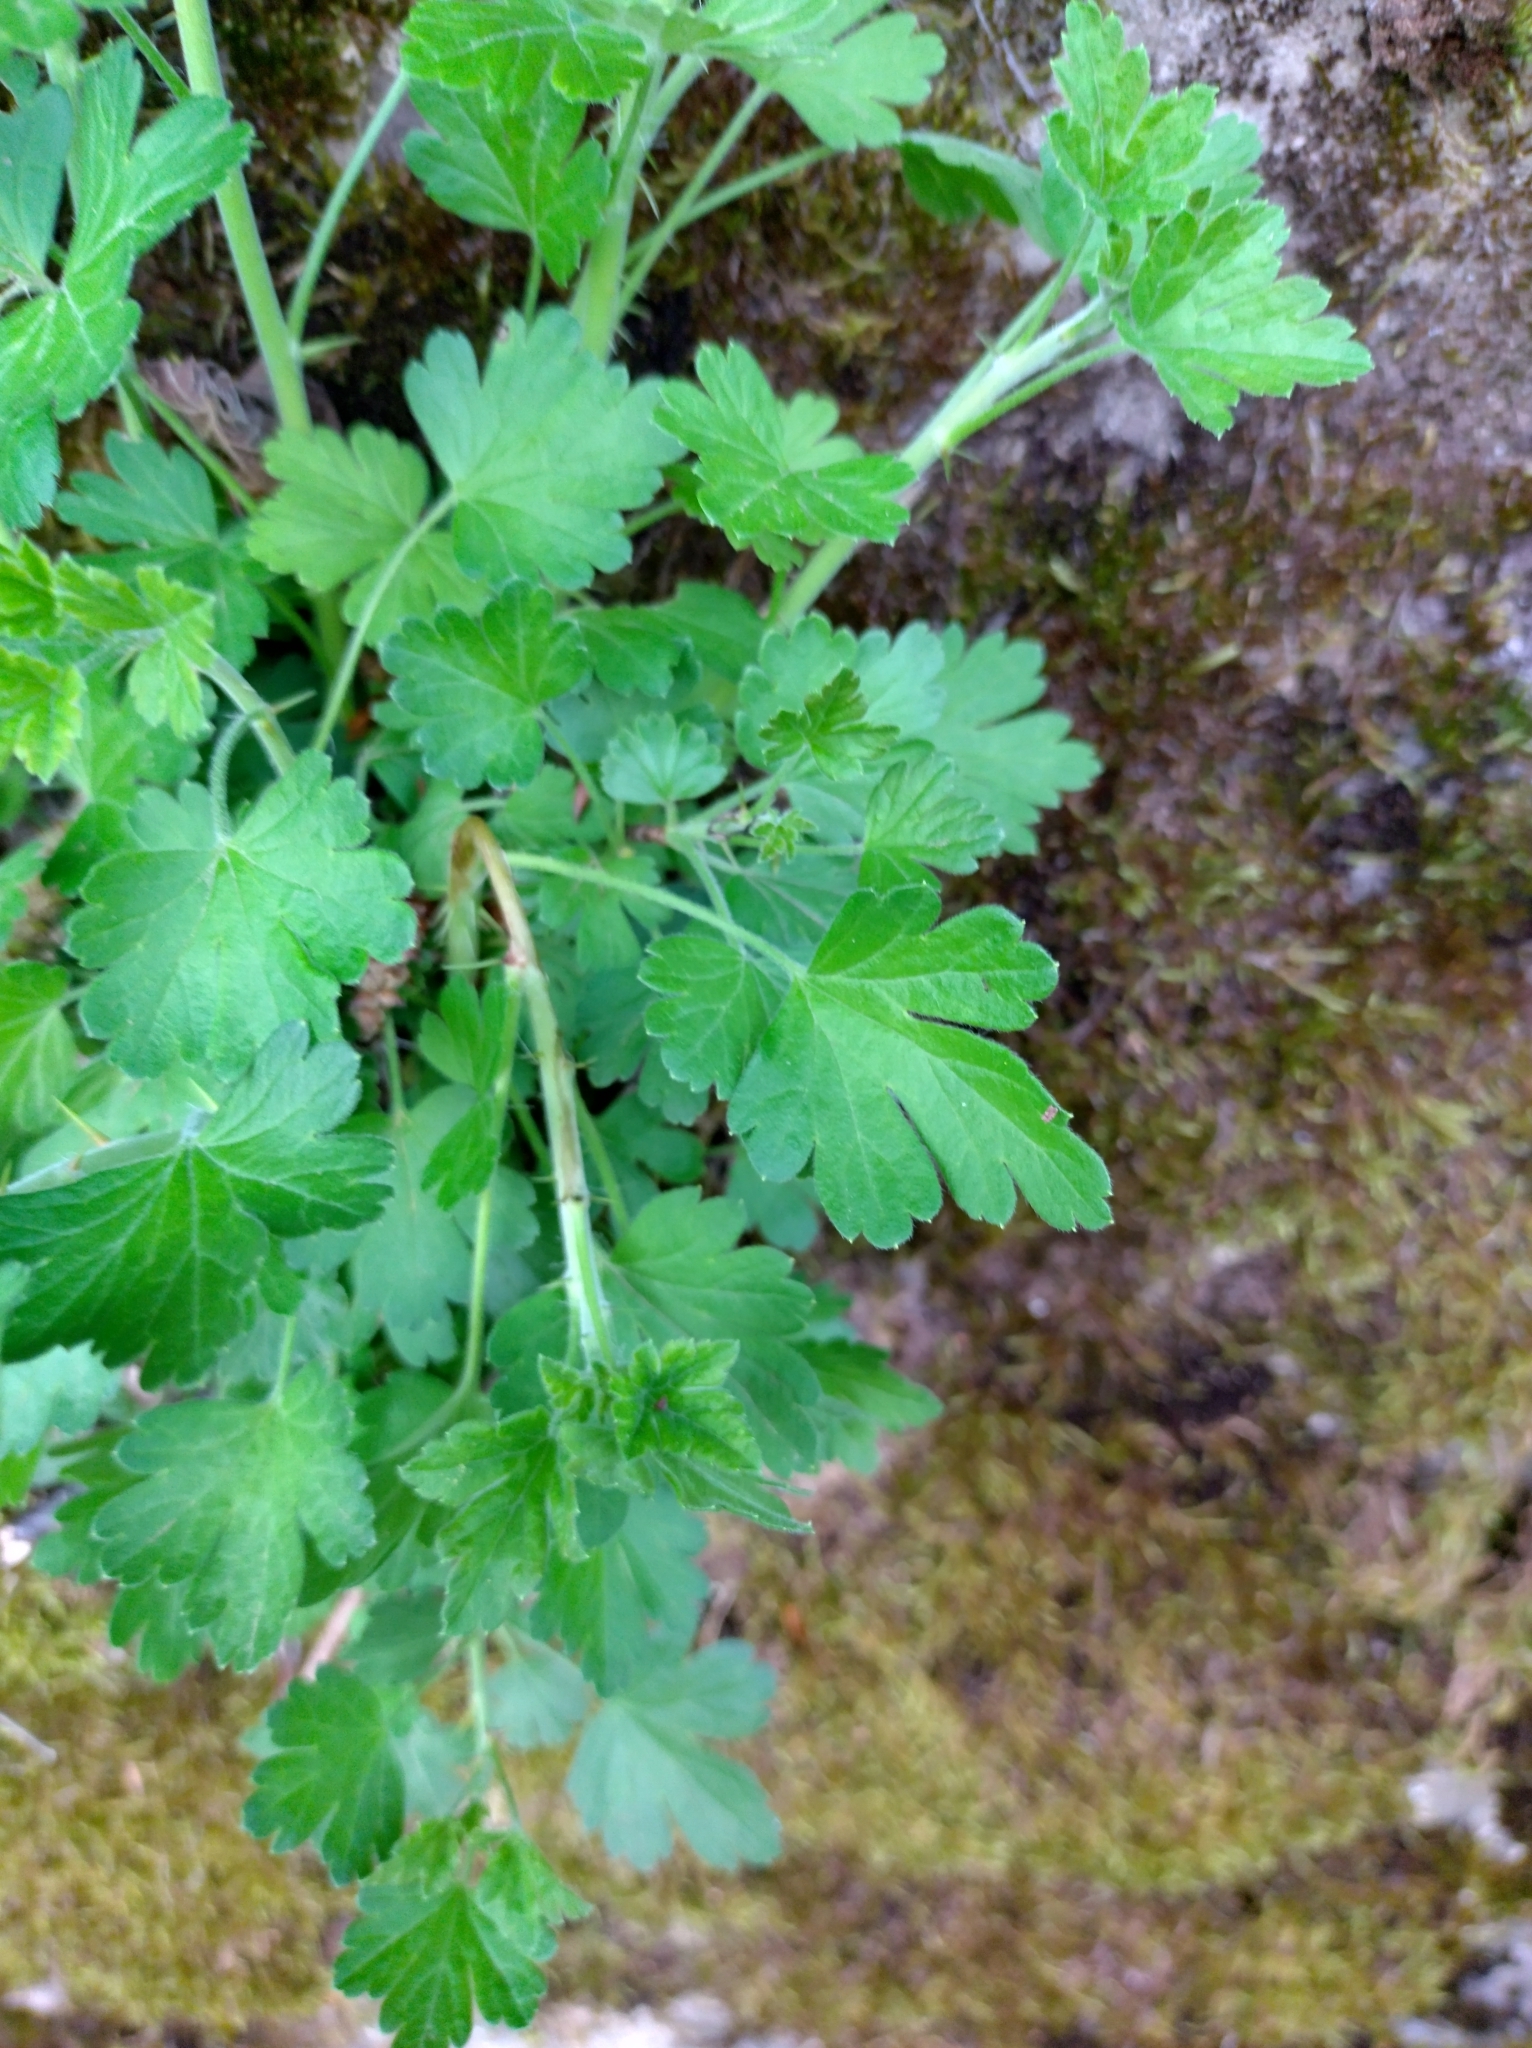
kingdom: Plantae
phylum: Tracheophyta
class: Magnoliopsida
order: Saxifragales
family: Grossulariaceae
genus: Ribes
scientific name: Ribes uva-crispa
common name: Gooseberry
